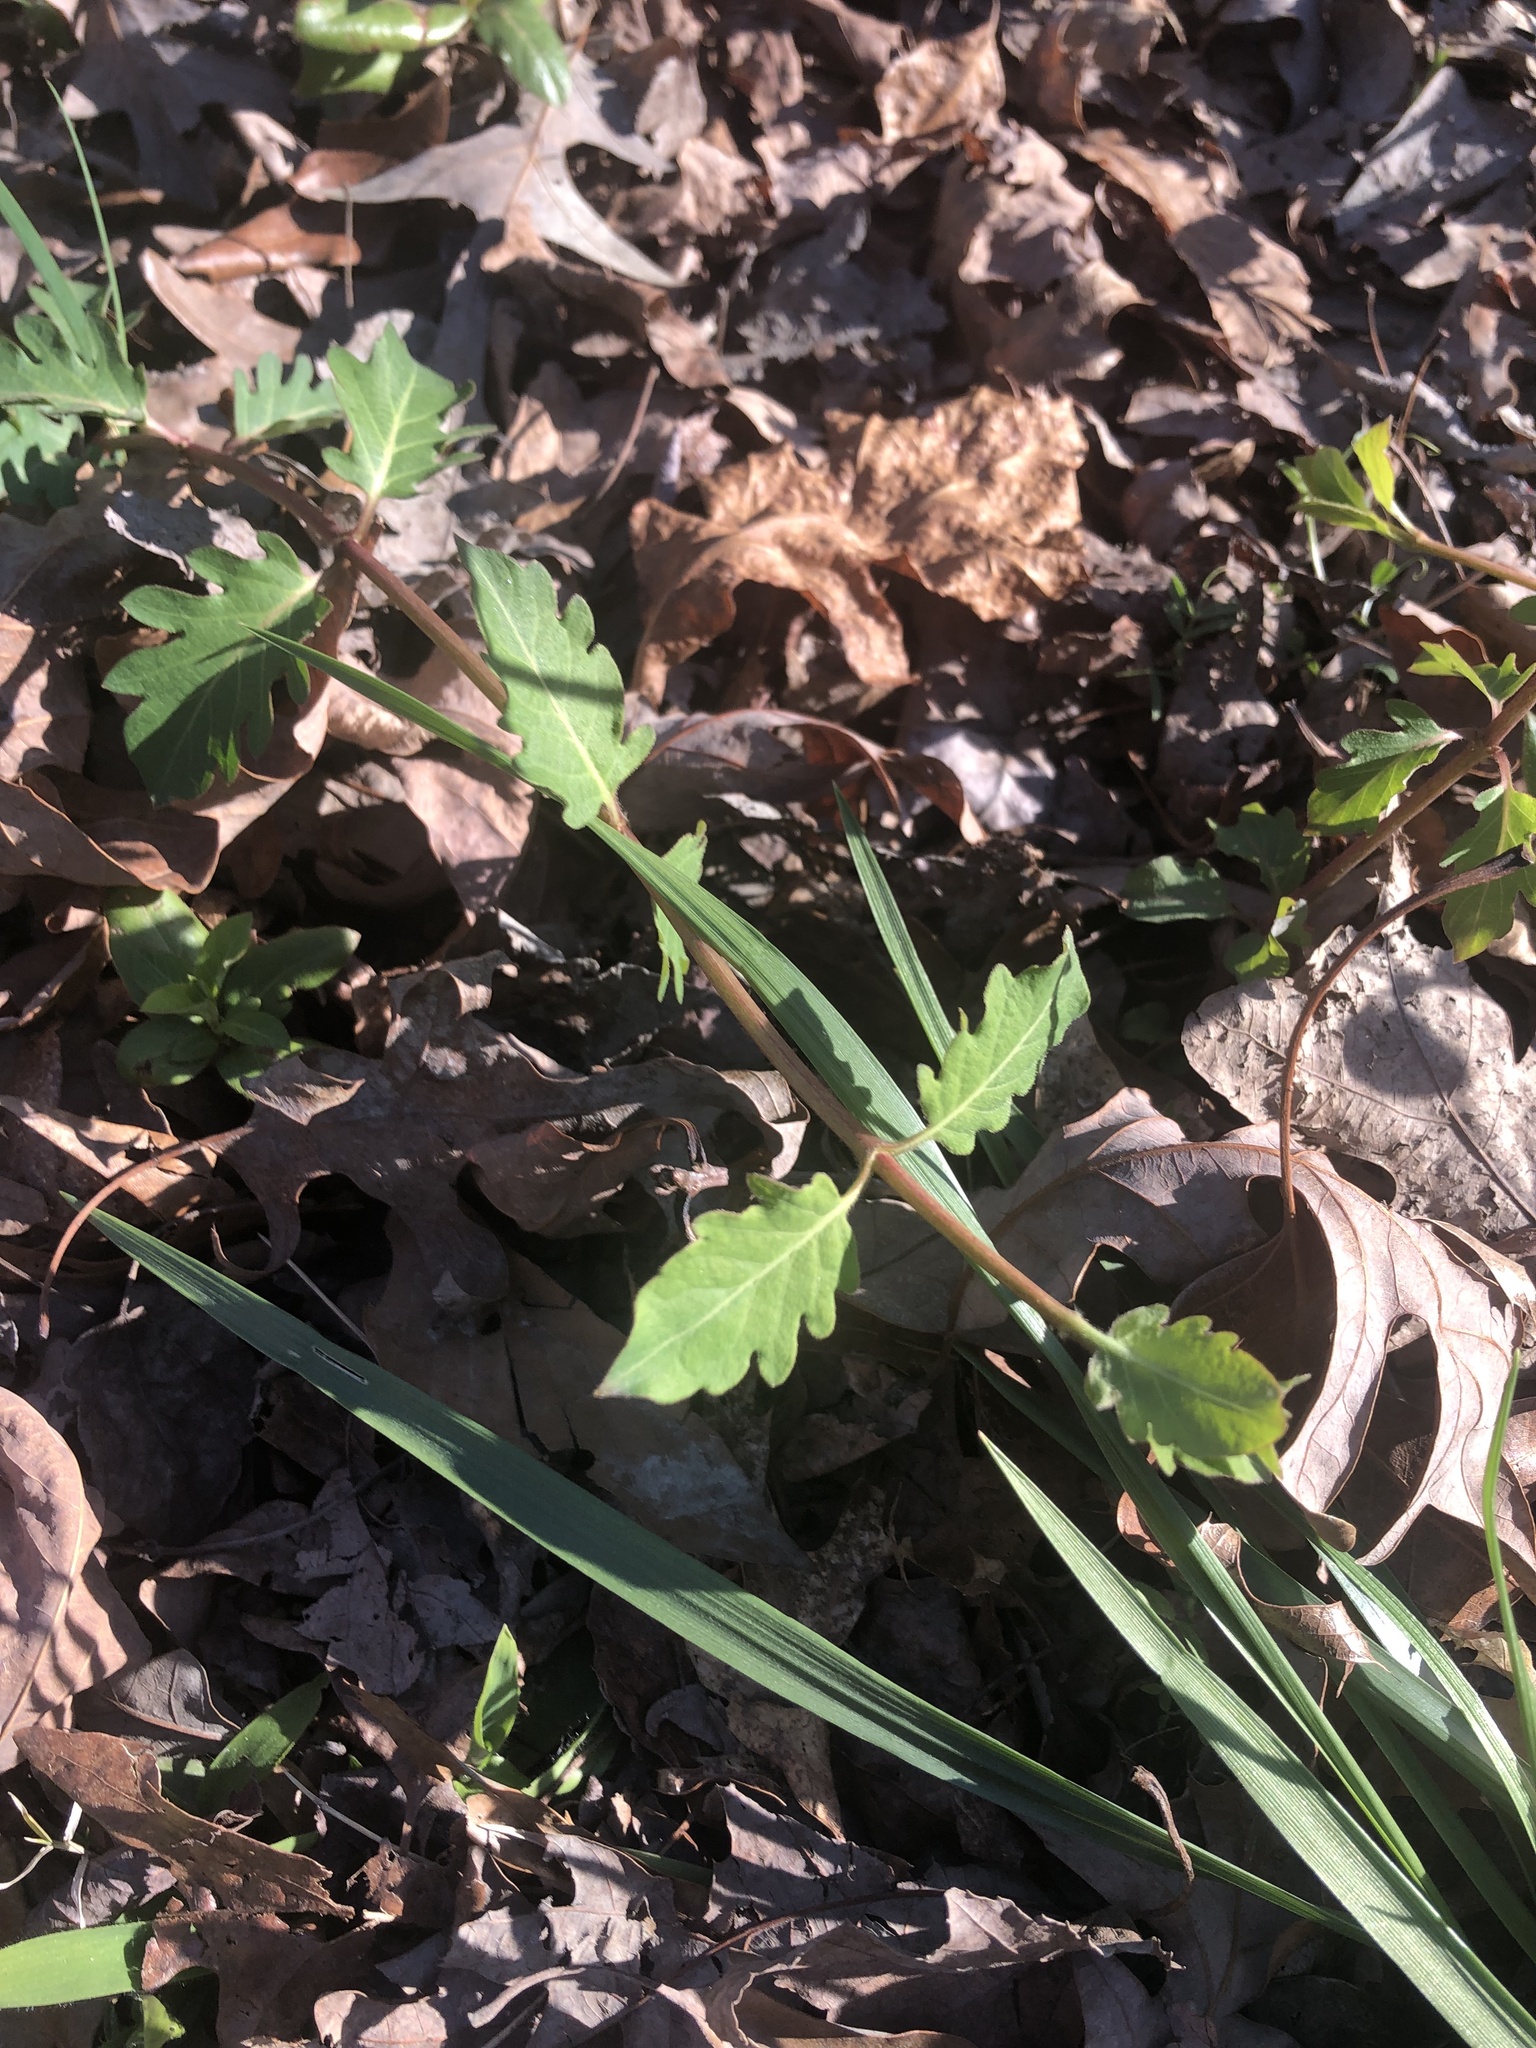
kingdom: Plantae
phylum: Tracheophyta
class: Magnoliopsida
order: Dipsacales
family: Caprifoliaceae
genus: Lonicera
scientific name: Lonicera japonica
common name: Japanese honeysuckle
